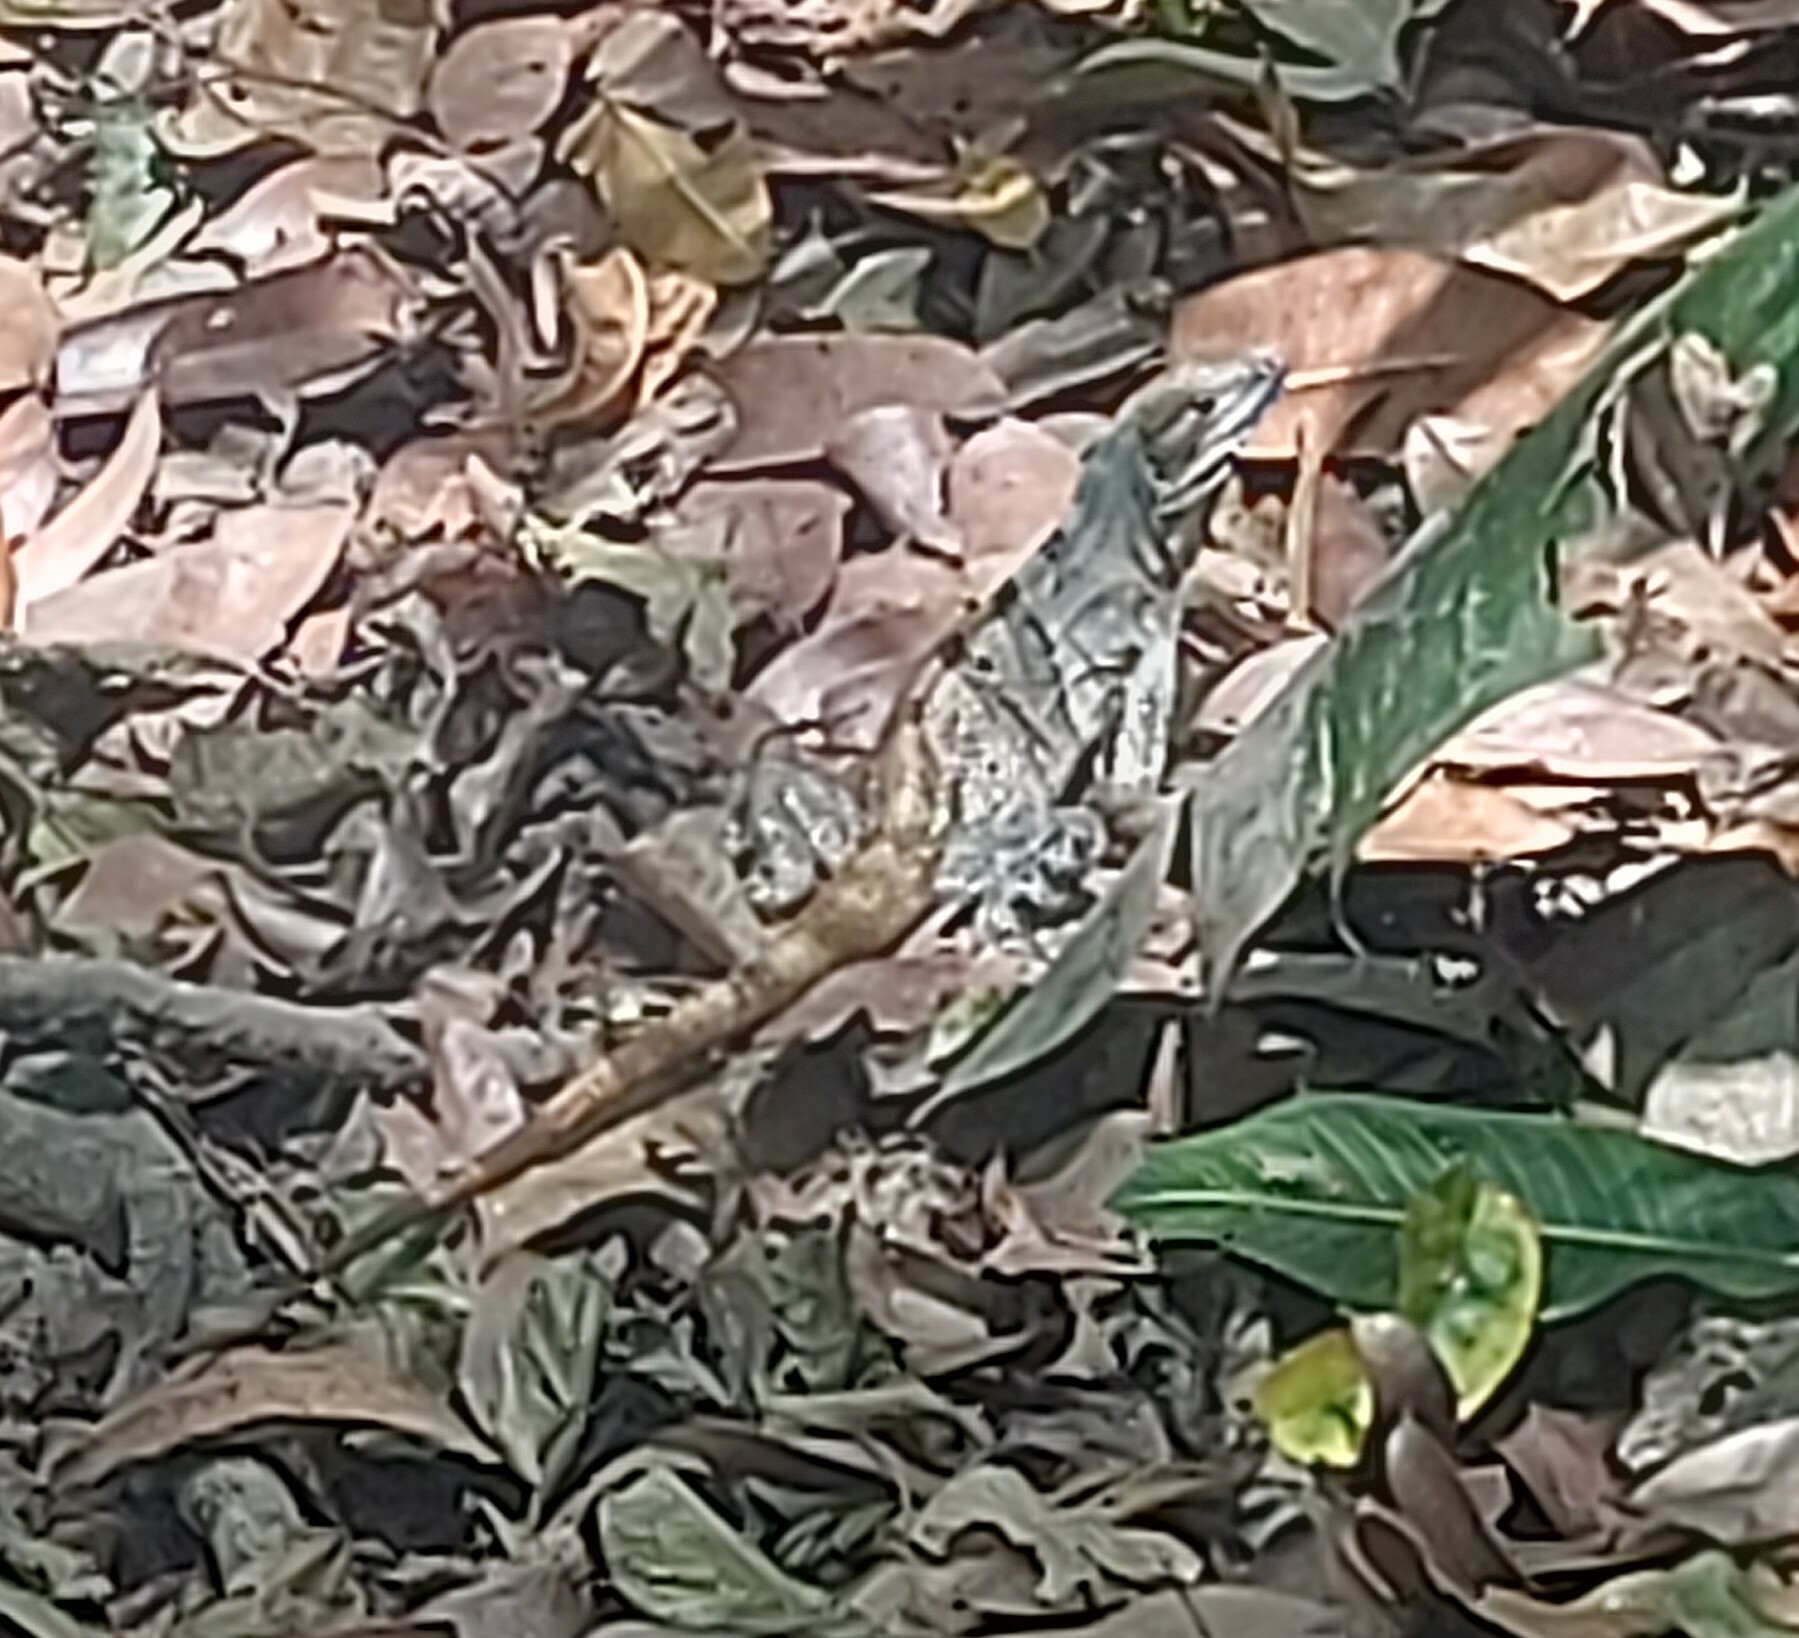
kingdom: Animalia
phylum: Chordata
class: Squamata
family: Iguanidae
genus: Ctenosaura
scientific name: Ctenosaura similis
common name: Black spiny-tailed iguana
